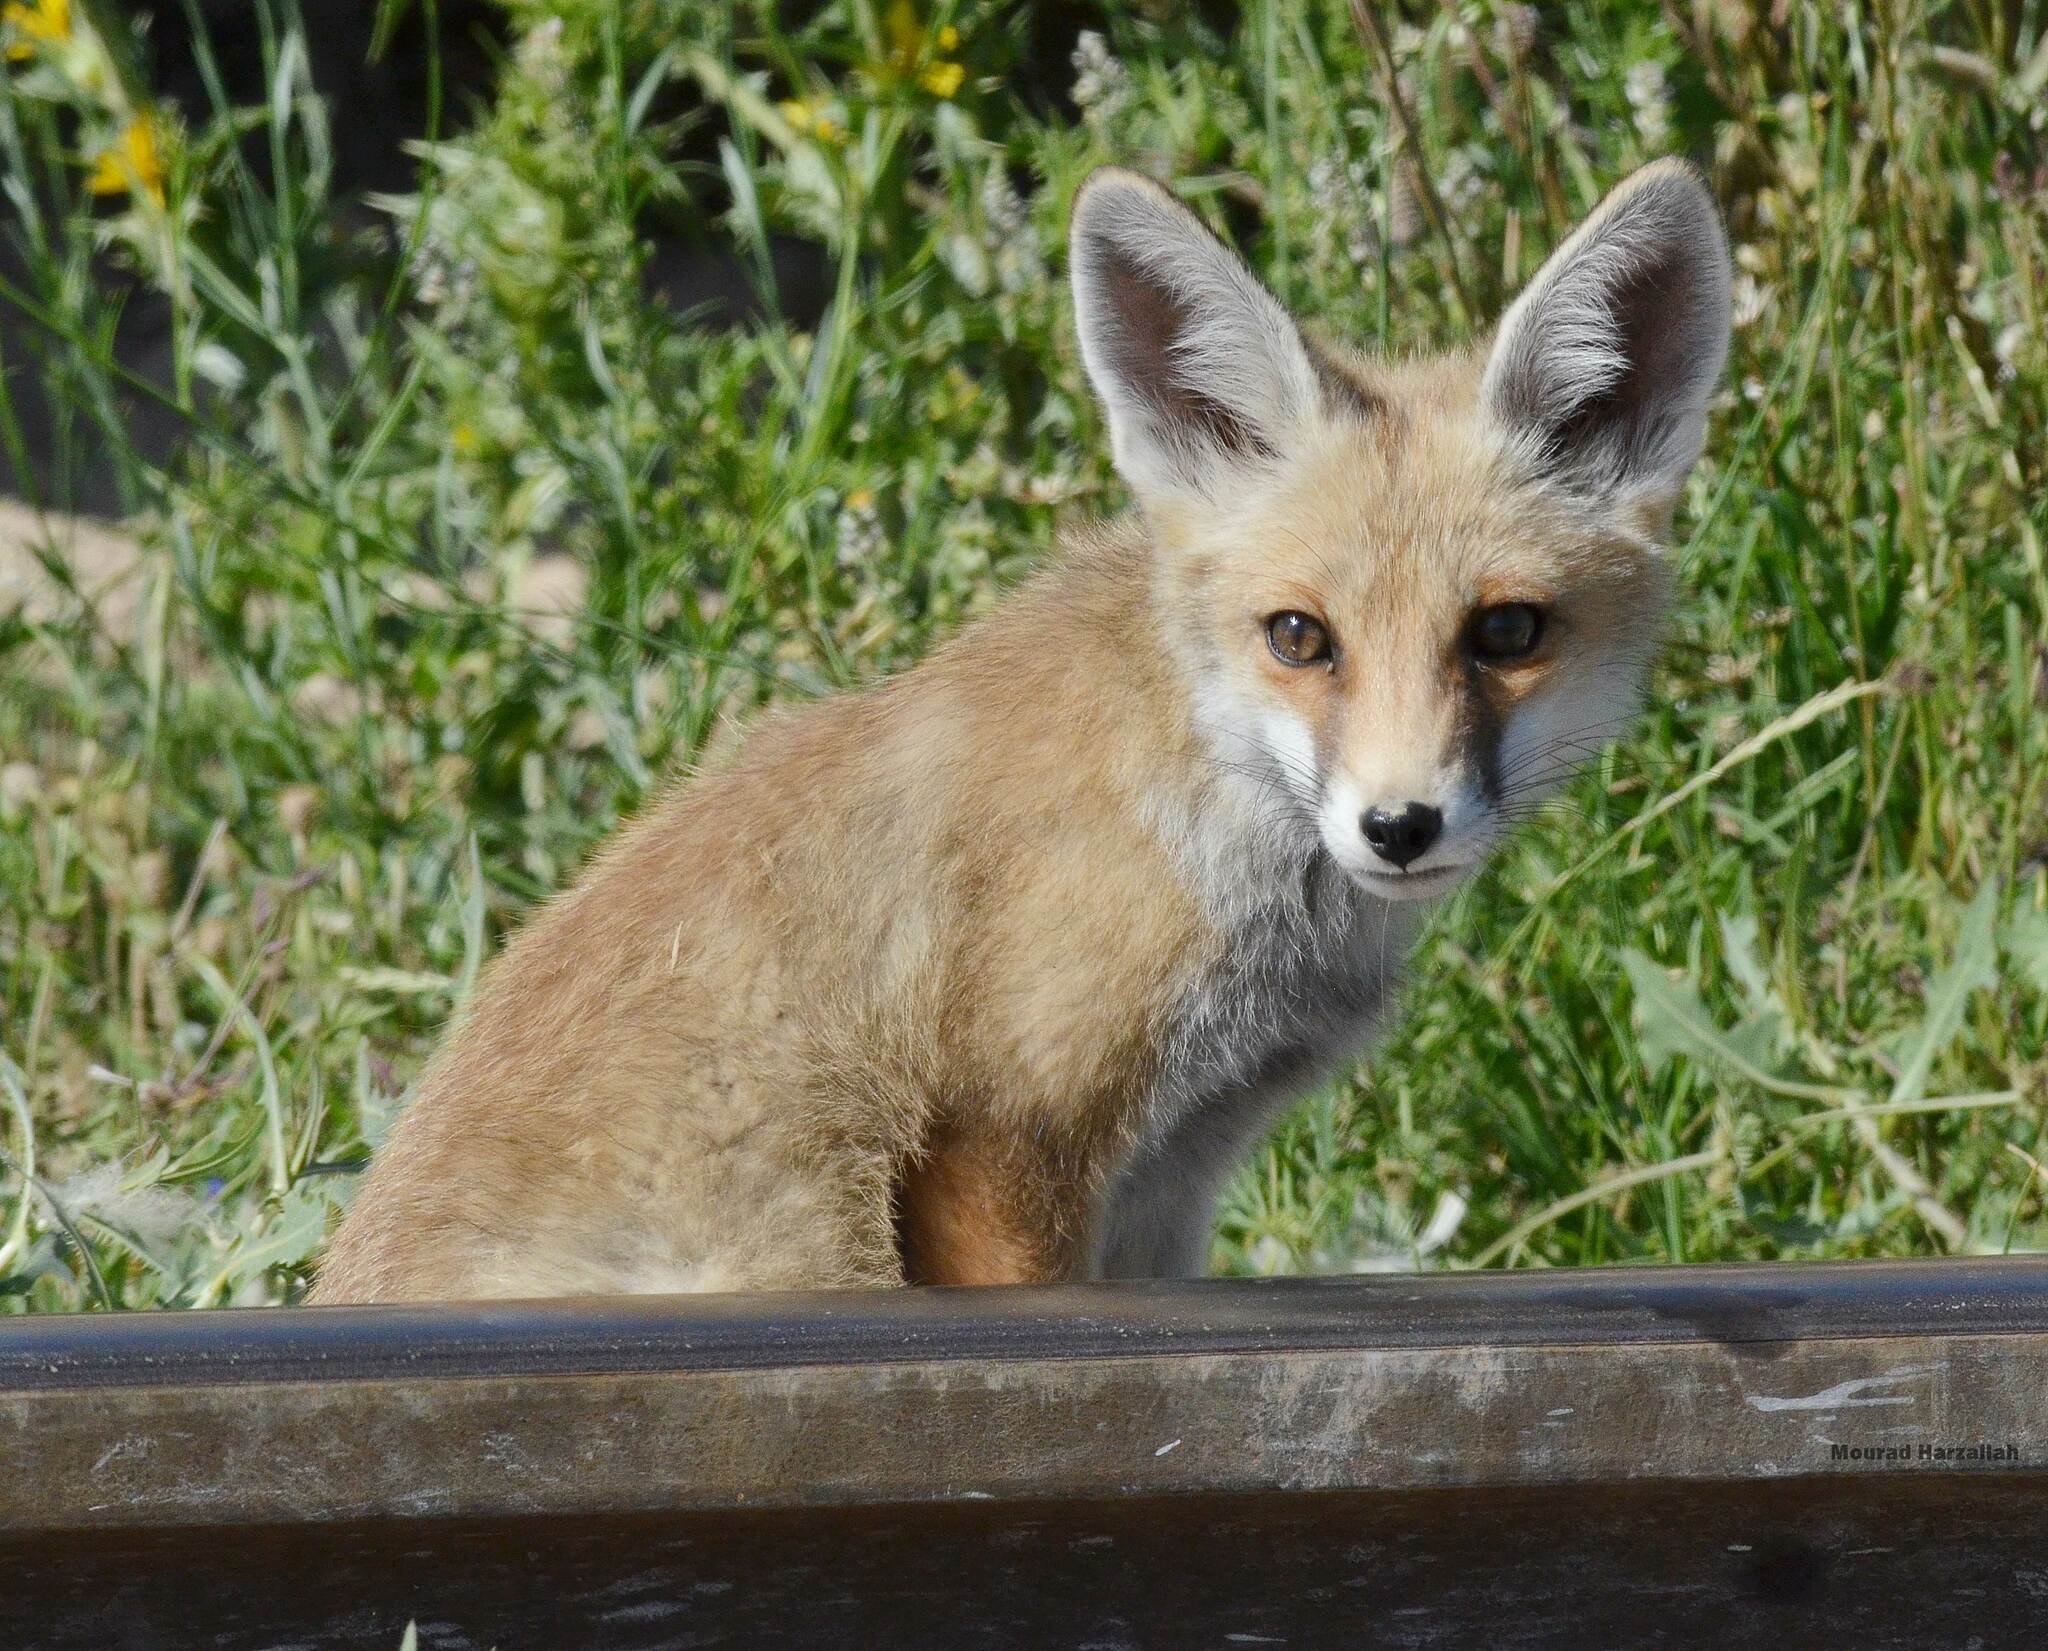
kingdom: Animalia
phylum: Chordata
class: Mammalia
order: Carnivora
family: Canidae
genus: Vulpes
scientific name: Vulpes vulpes
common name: Red fox
